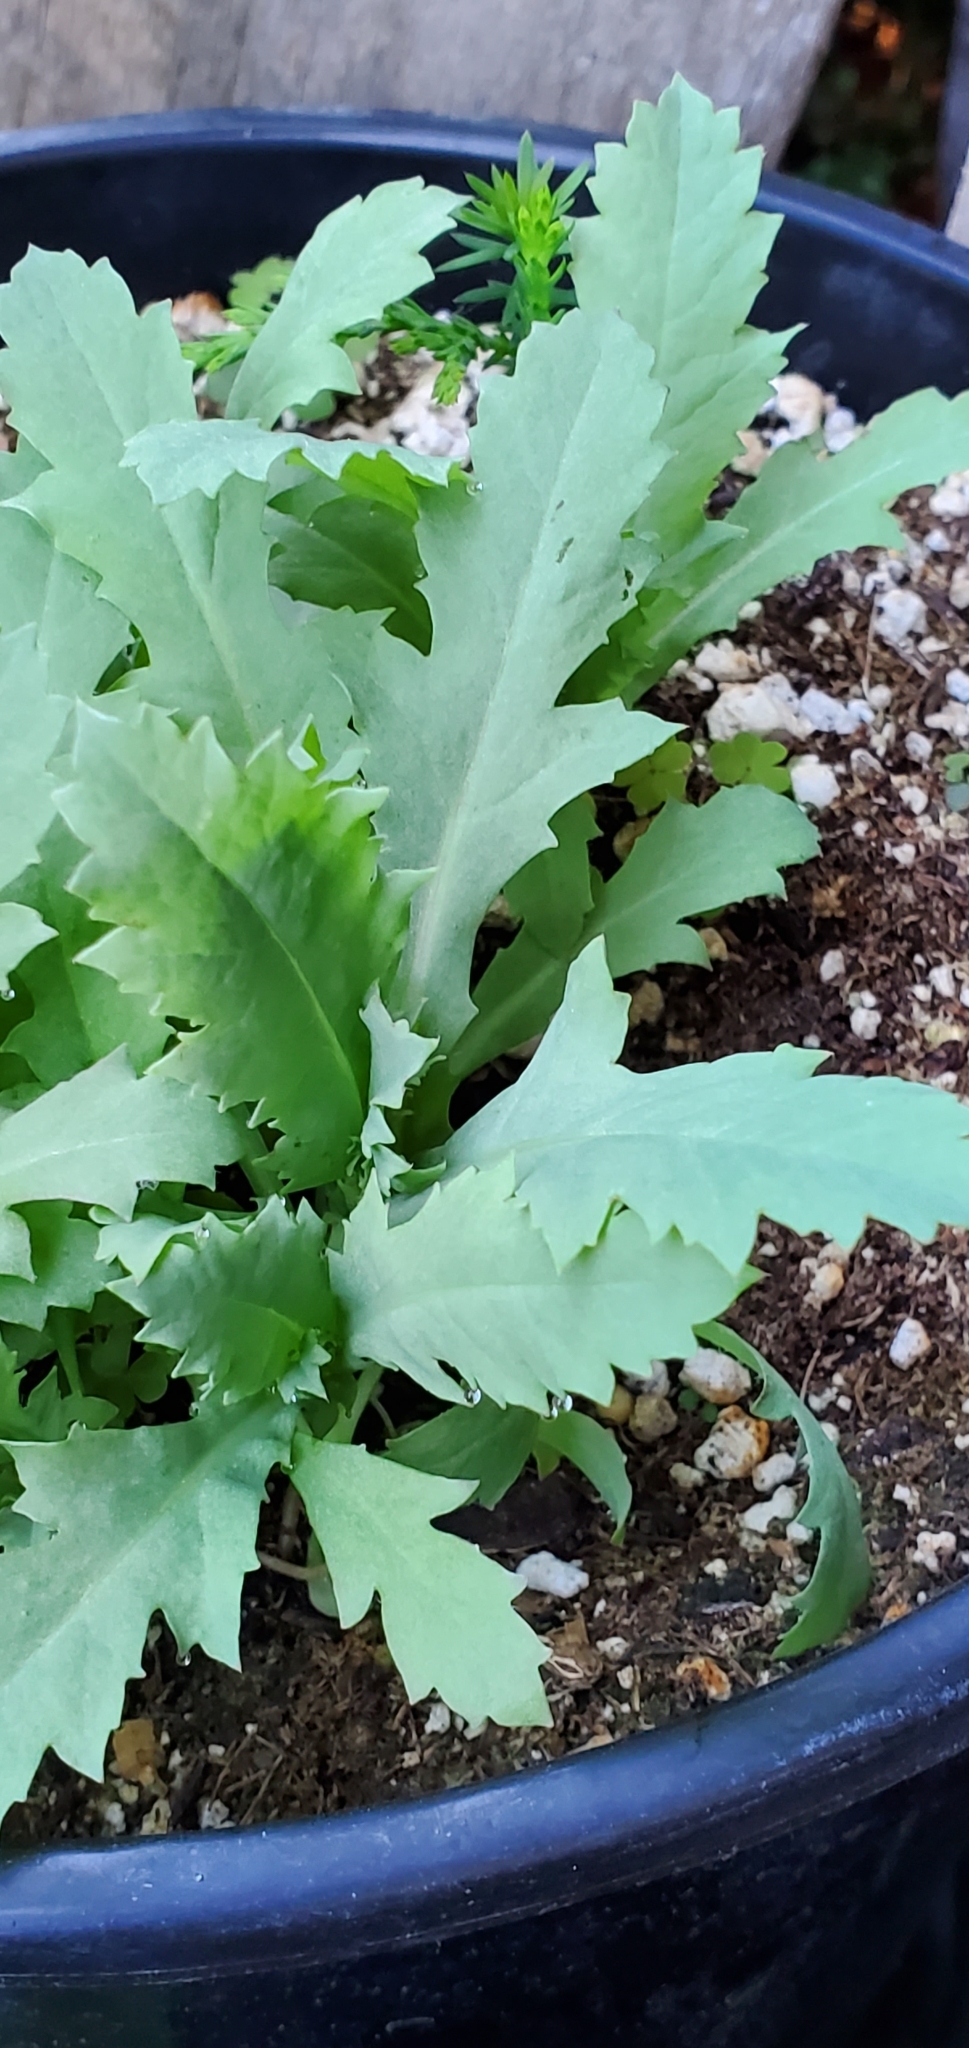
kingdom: Plantae
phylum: Tracheophyta
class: Magnoliopsida
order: Ranunculales
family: Papaveraceae
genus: Papaver
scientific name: Papaver somniferum
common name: Opium poppy
